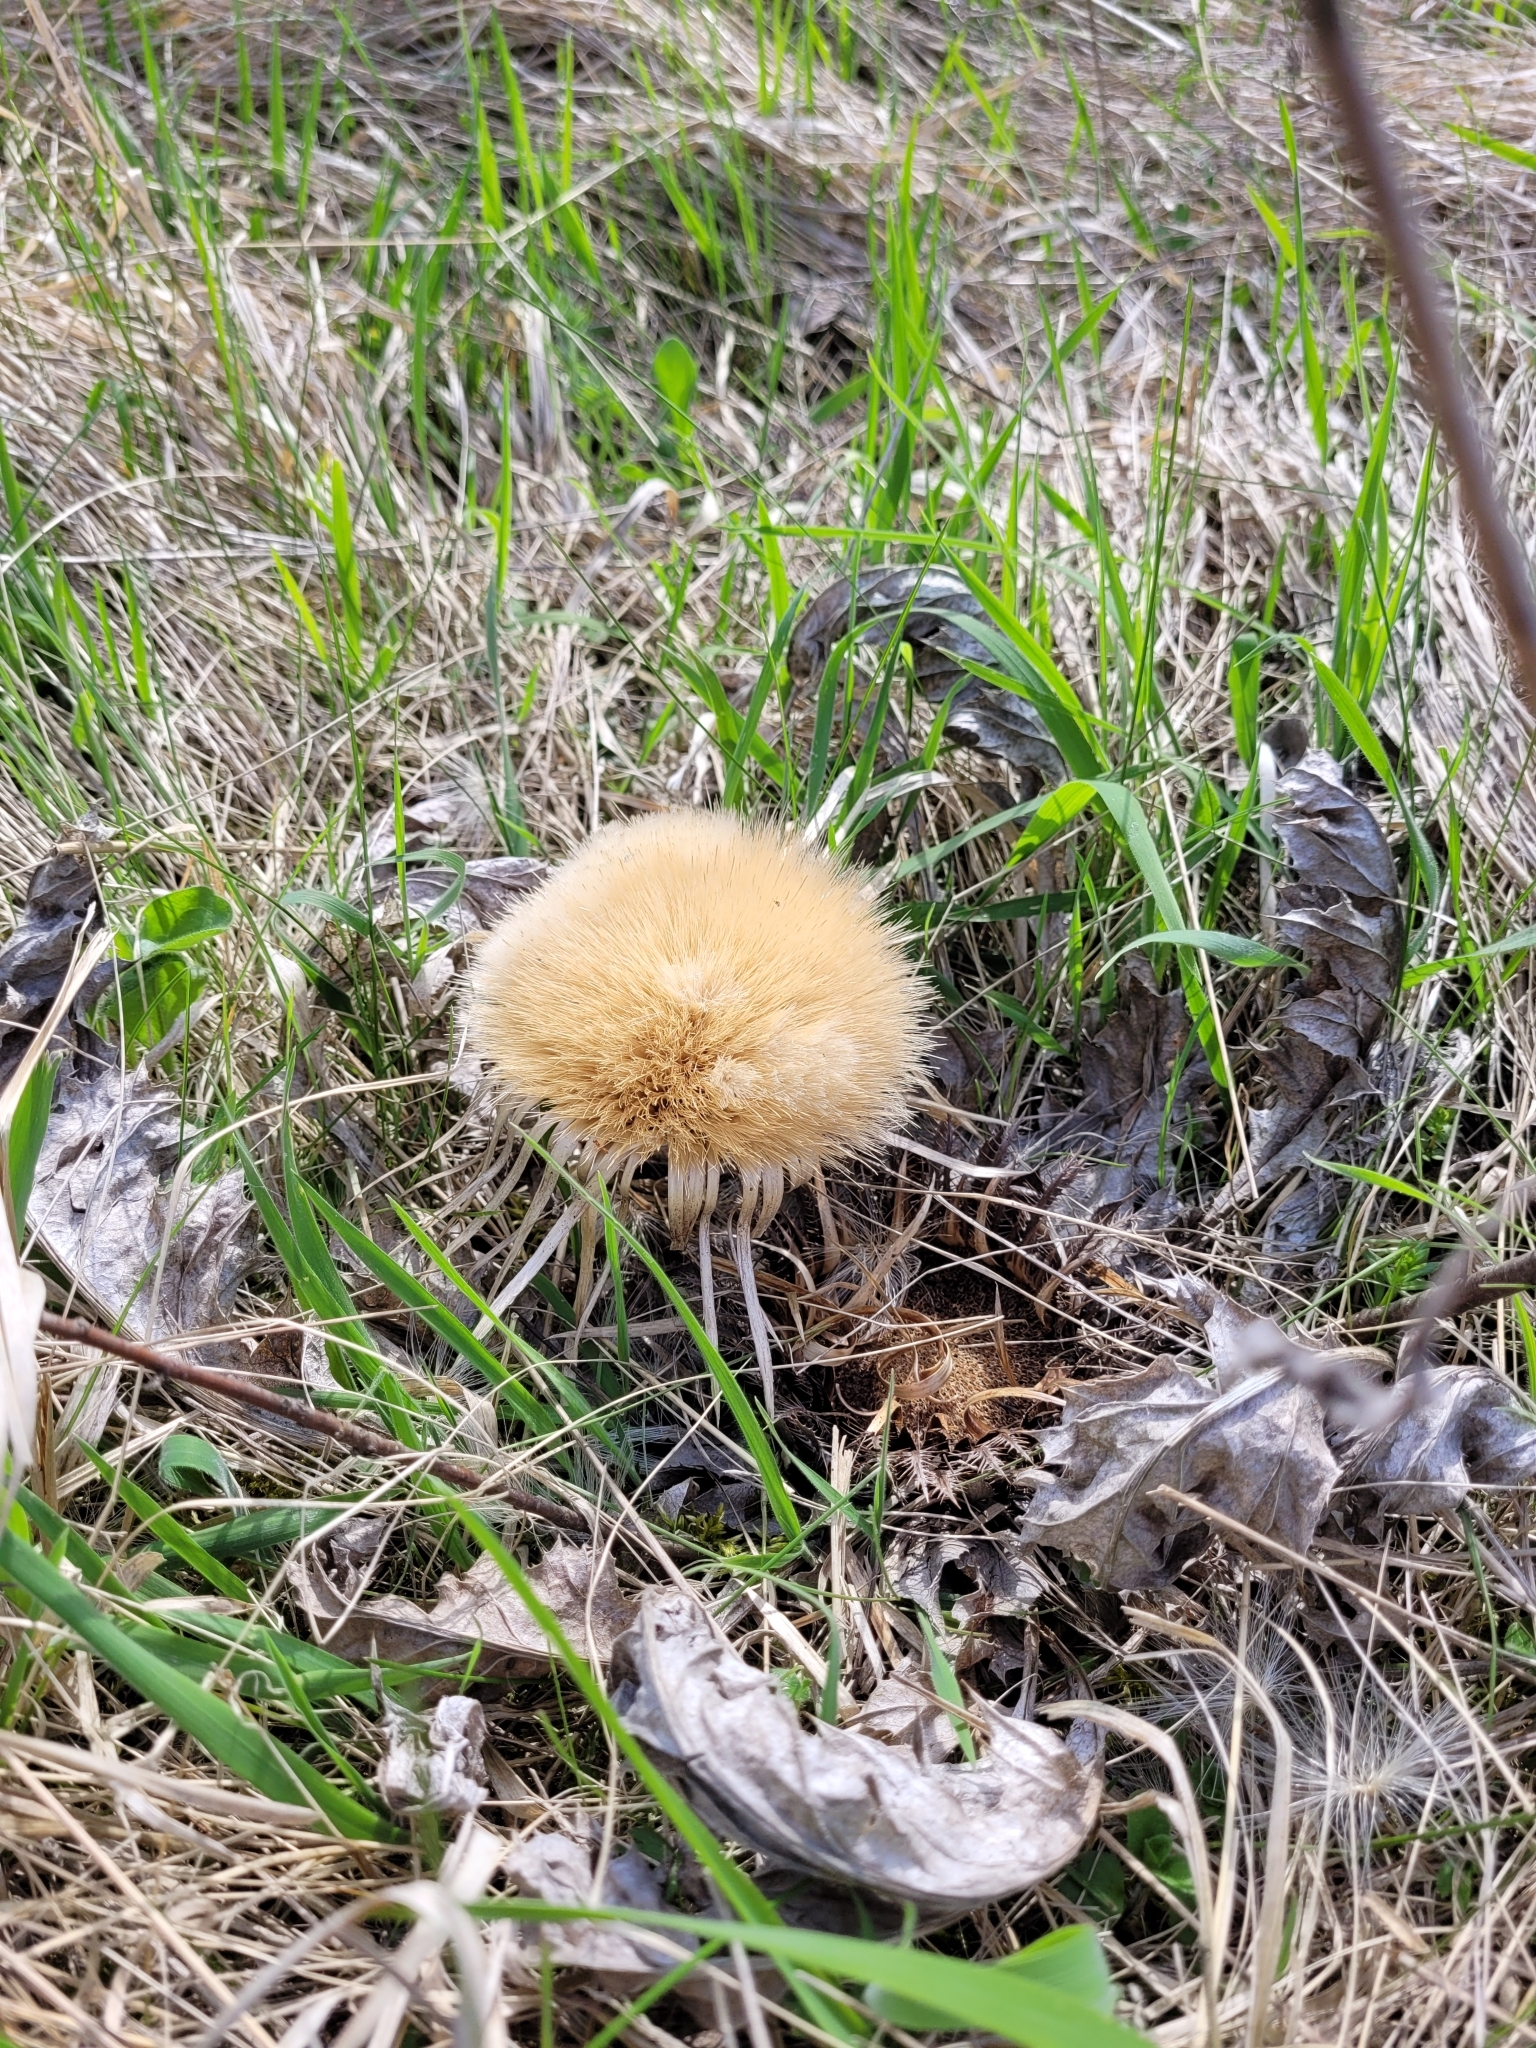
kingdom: Plantae
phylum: Tracheophyta
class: Magnoliopsida
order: Asterales
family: Asteraceae
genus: Carlina
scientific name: Carlina acanthifolia
